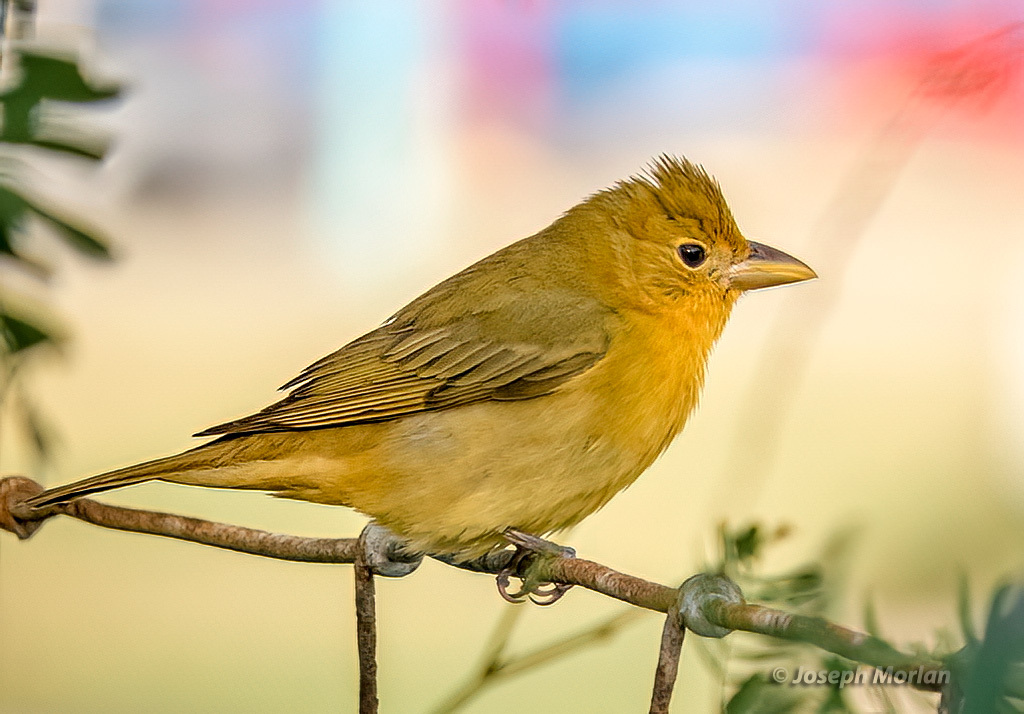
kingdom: Animalia
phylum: Chordata
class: Aves
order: Passeriformes
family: Cardinalidae
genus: Piranga
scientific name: Piranga rubra
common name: Summer tanager
